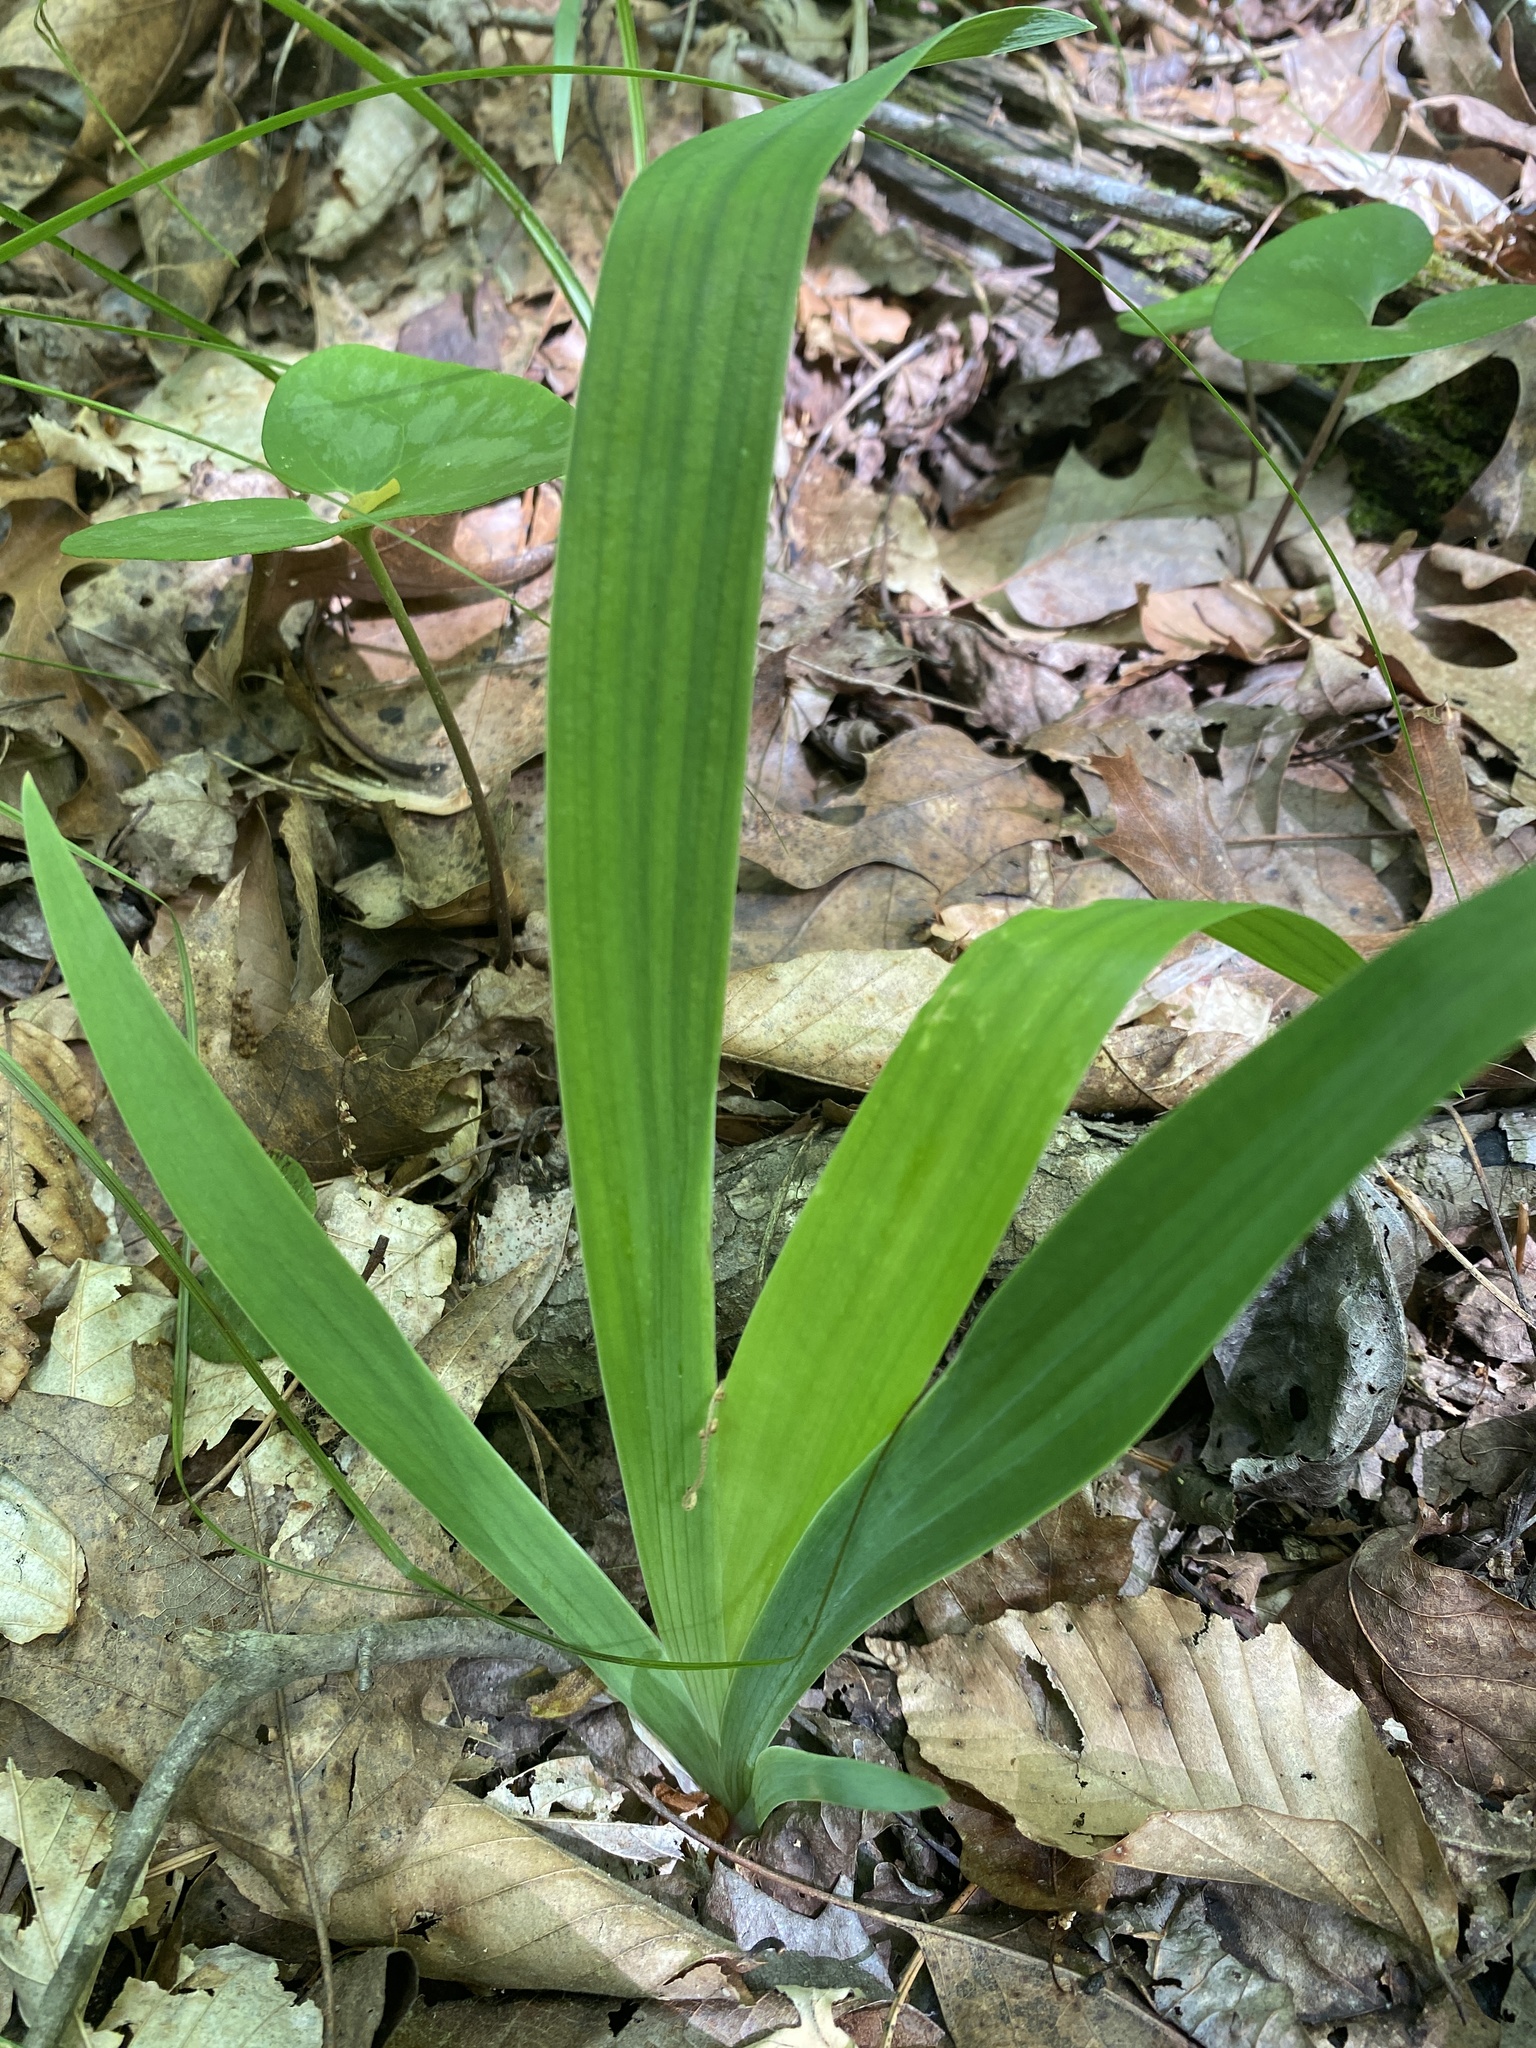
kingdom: Plantae
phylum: Tracheophyta
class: Liliopsida
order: Asparagales
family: Iridaceae
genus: Iris
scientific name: Iris cristata
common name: Crested iris
